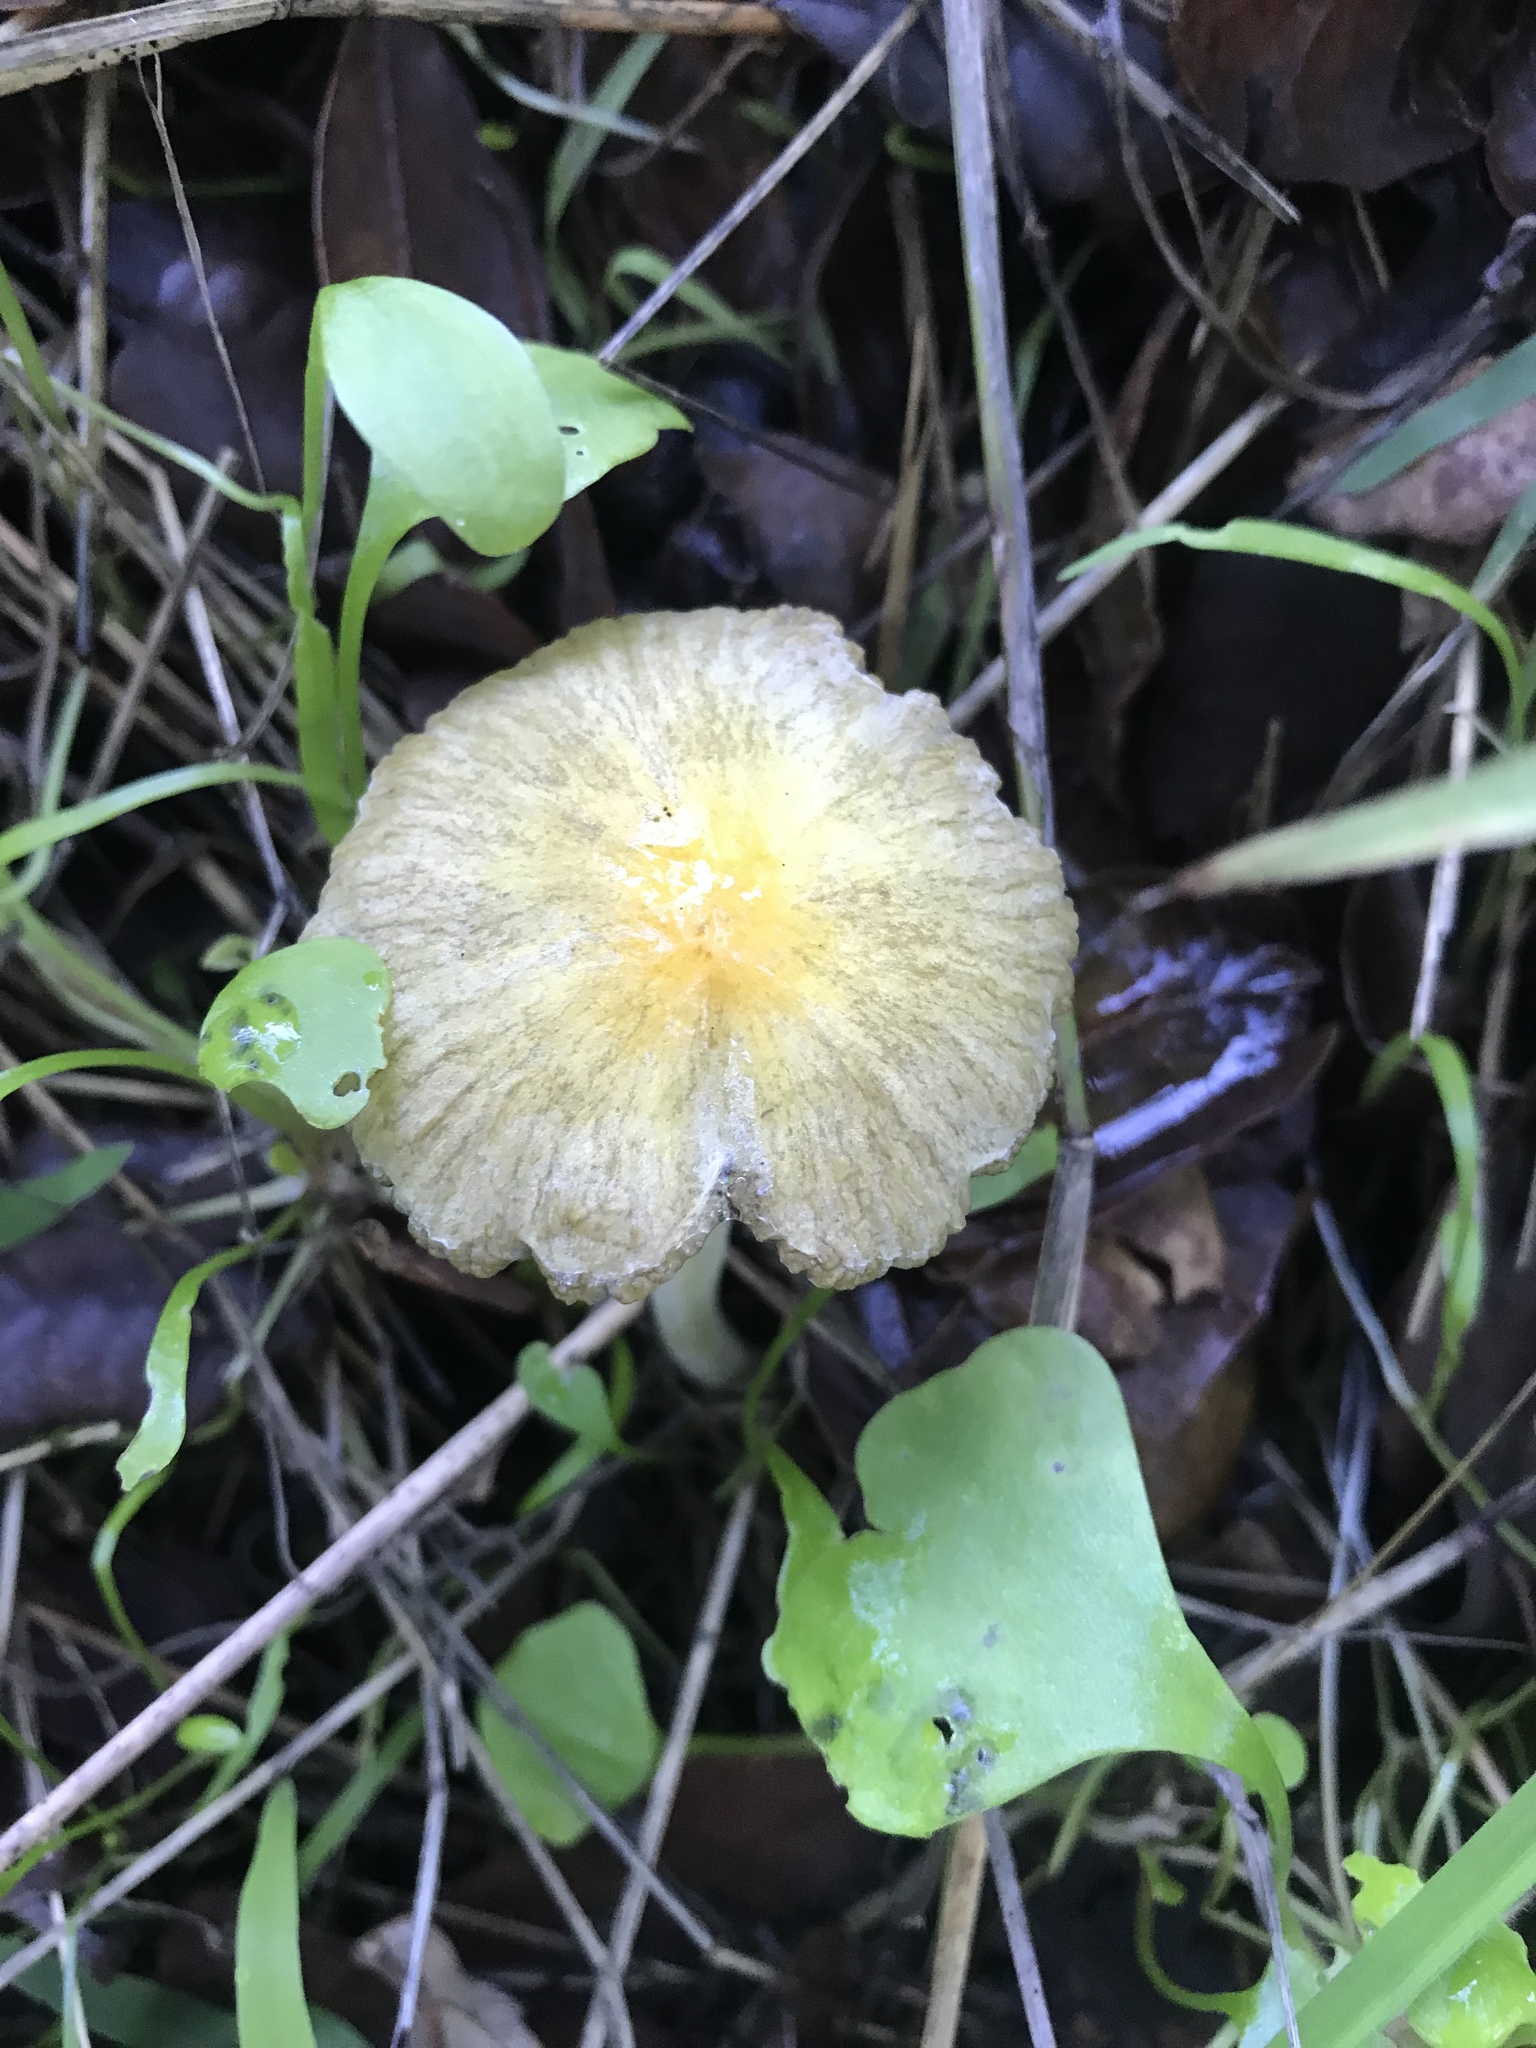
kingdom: Fungi
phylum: Basidiomycota
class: Agaricomycetes
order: Agaricales
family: Bolbitiaceae
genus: Bolbitius
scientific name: Bolbitius titubans
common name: Yellow fieldcap
